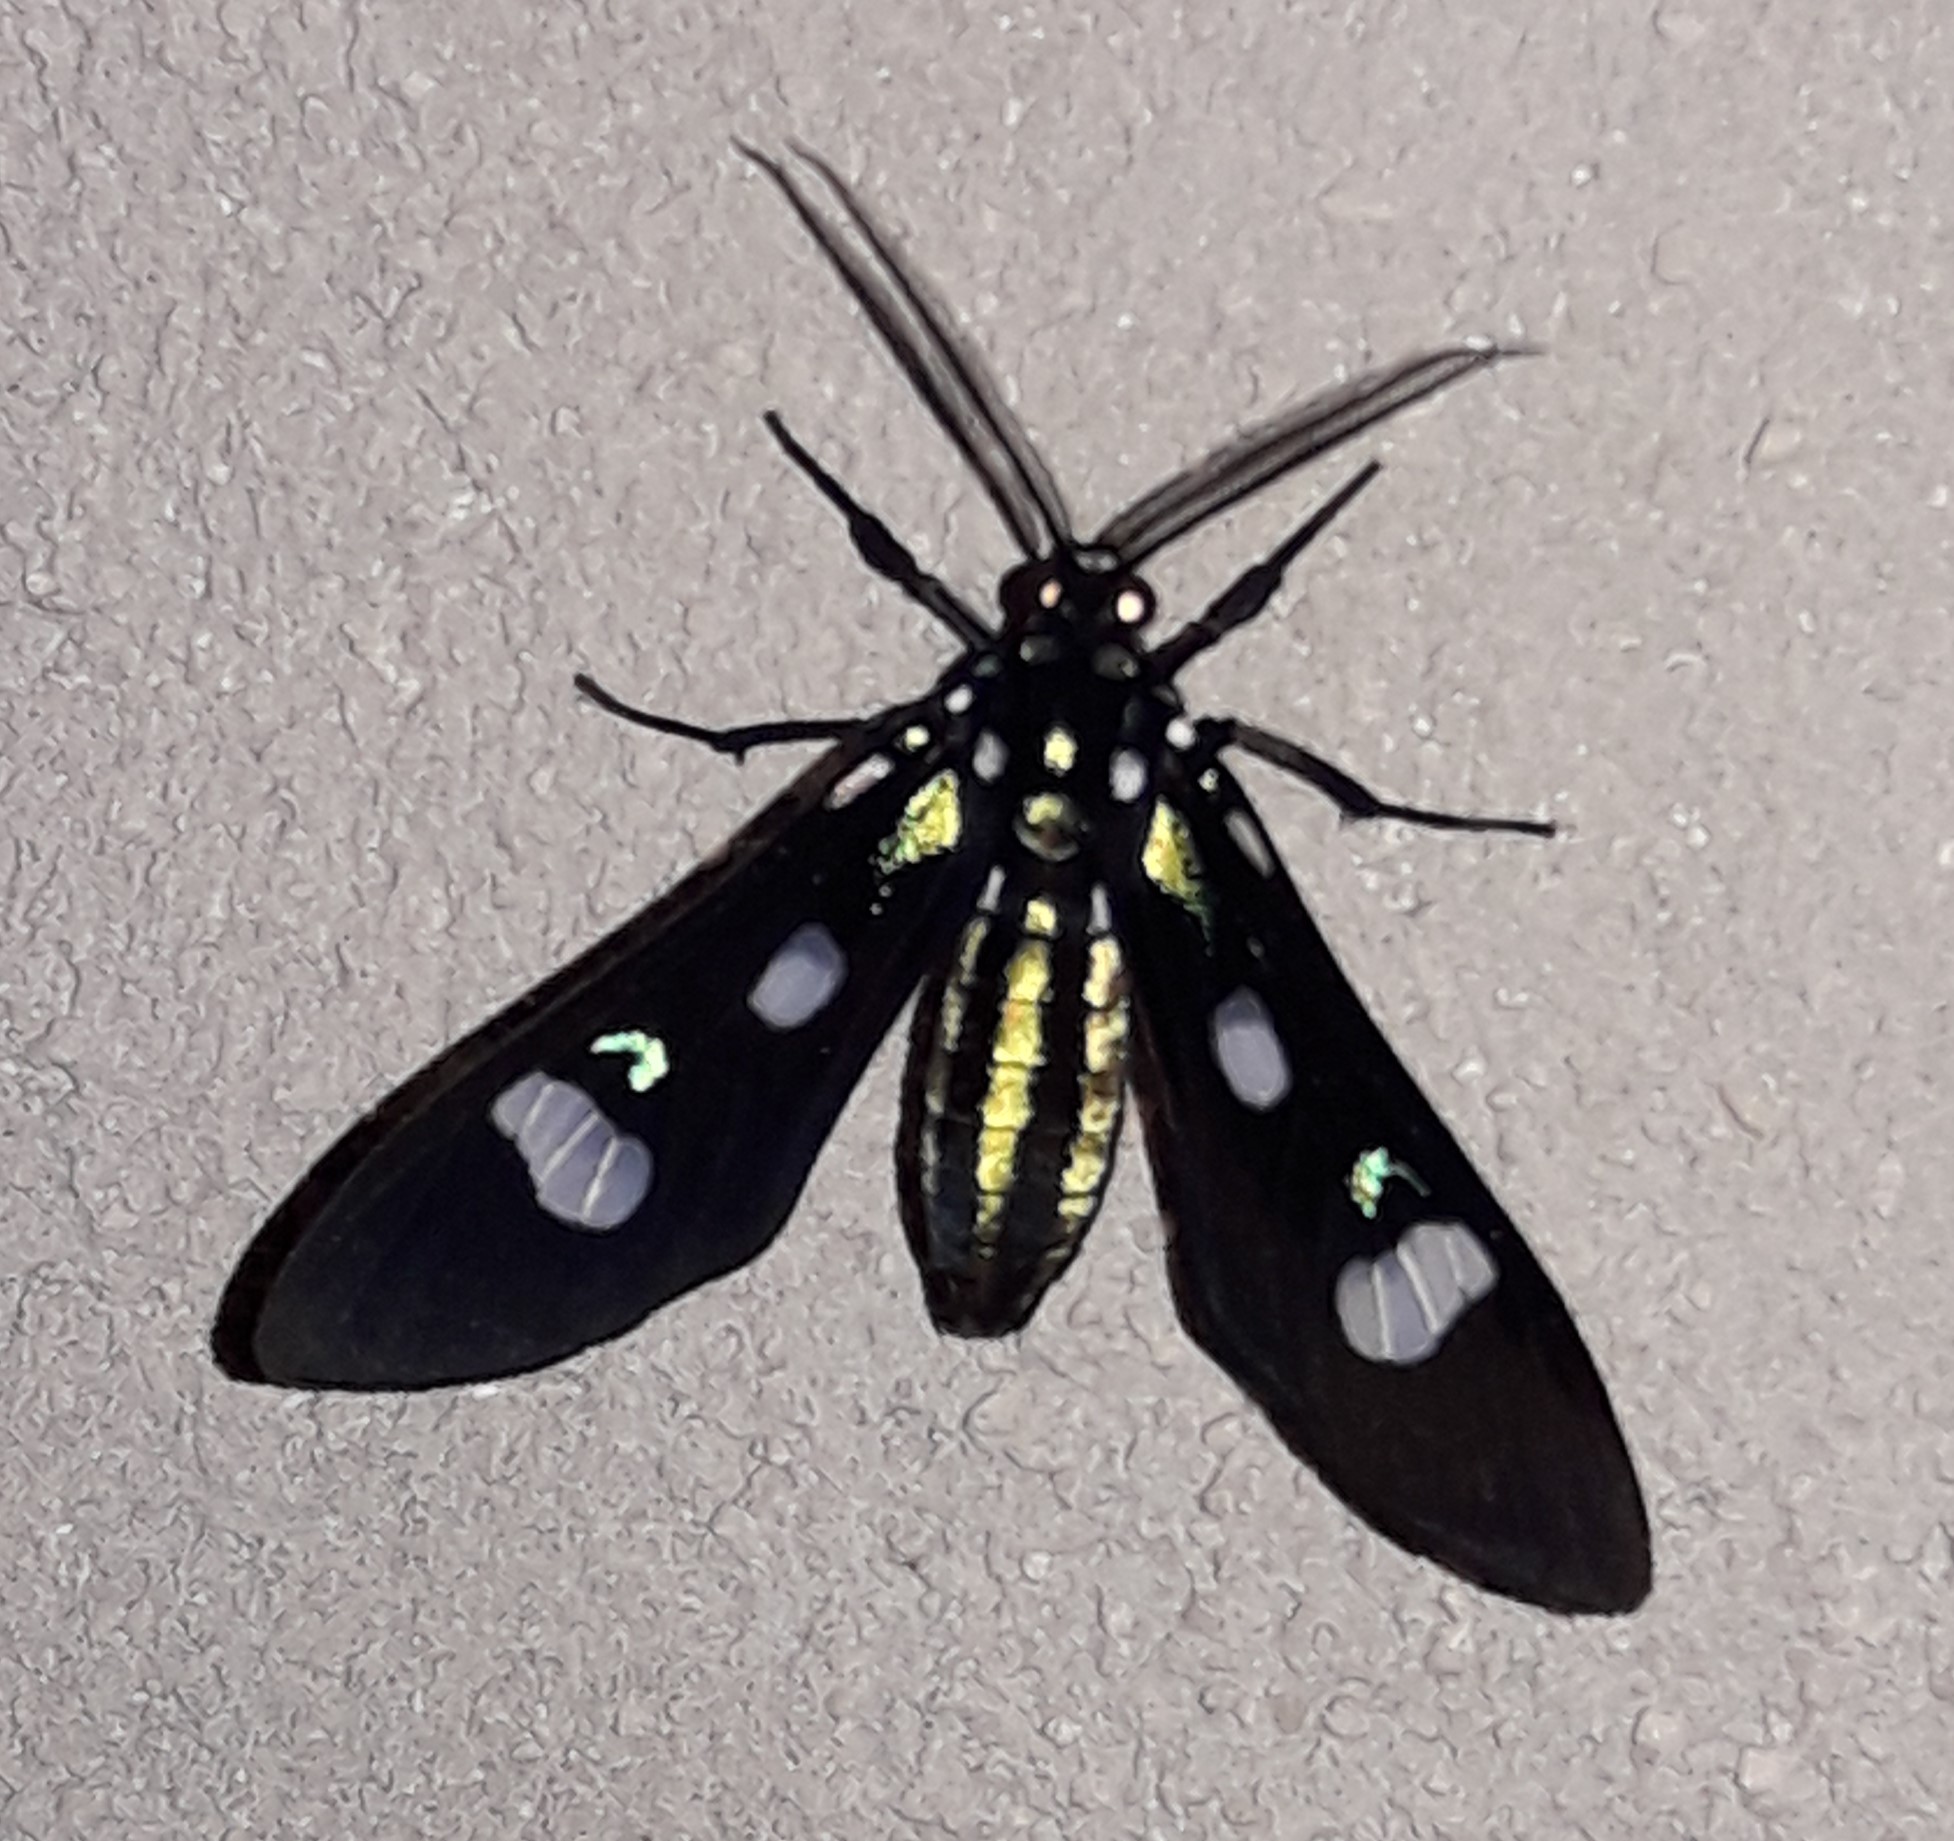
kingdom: Animalia
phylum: Arthropoda
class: Insecta
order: Lepidoptera
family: Erebidae
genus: Leucotmemis
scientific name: Leucotmemis nexa
